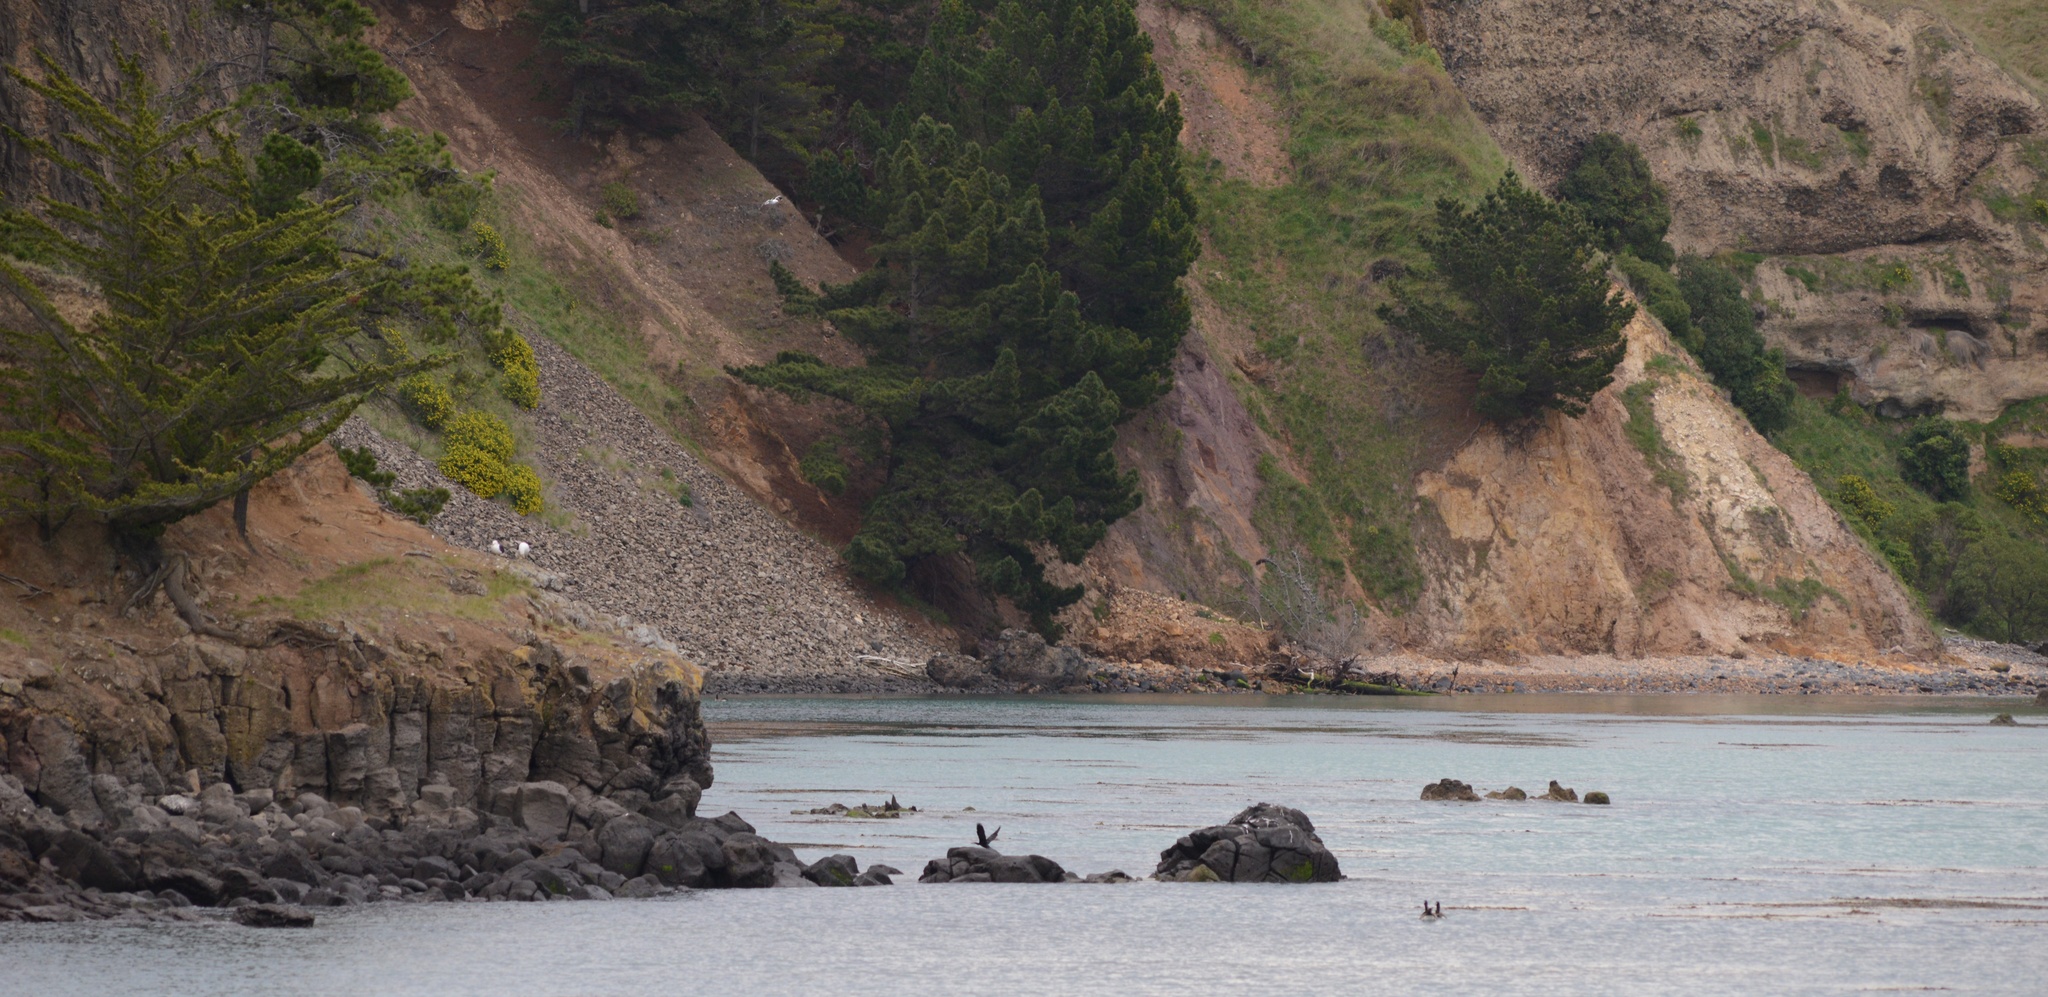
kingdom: Animalia
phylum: Chordata
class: Aves
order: Suliformes
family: Phalacrocoracidae
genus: Phalacrocorax
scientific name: Phalacrocorax carbo
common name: Great cormorant
